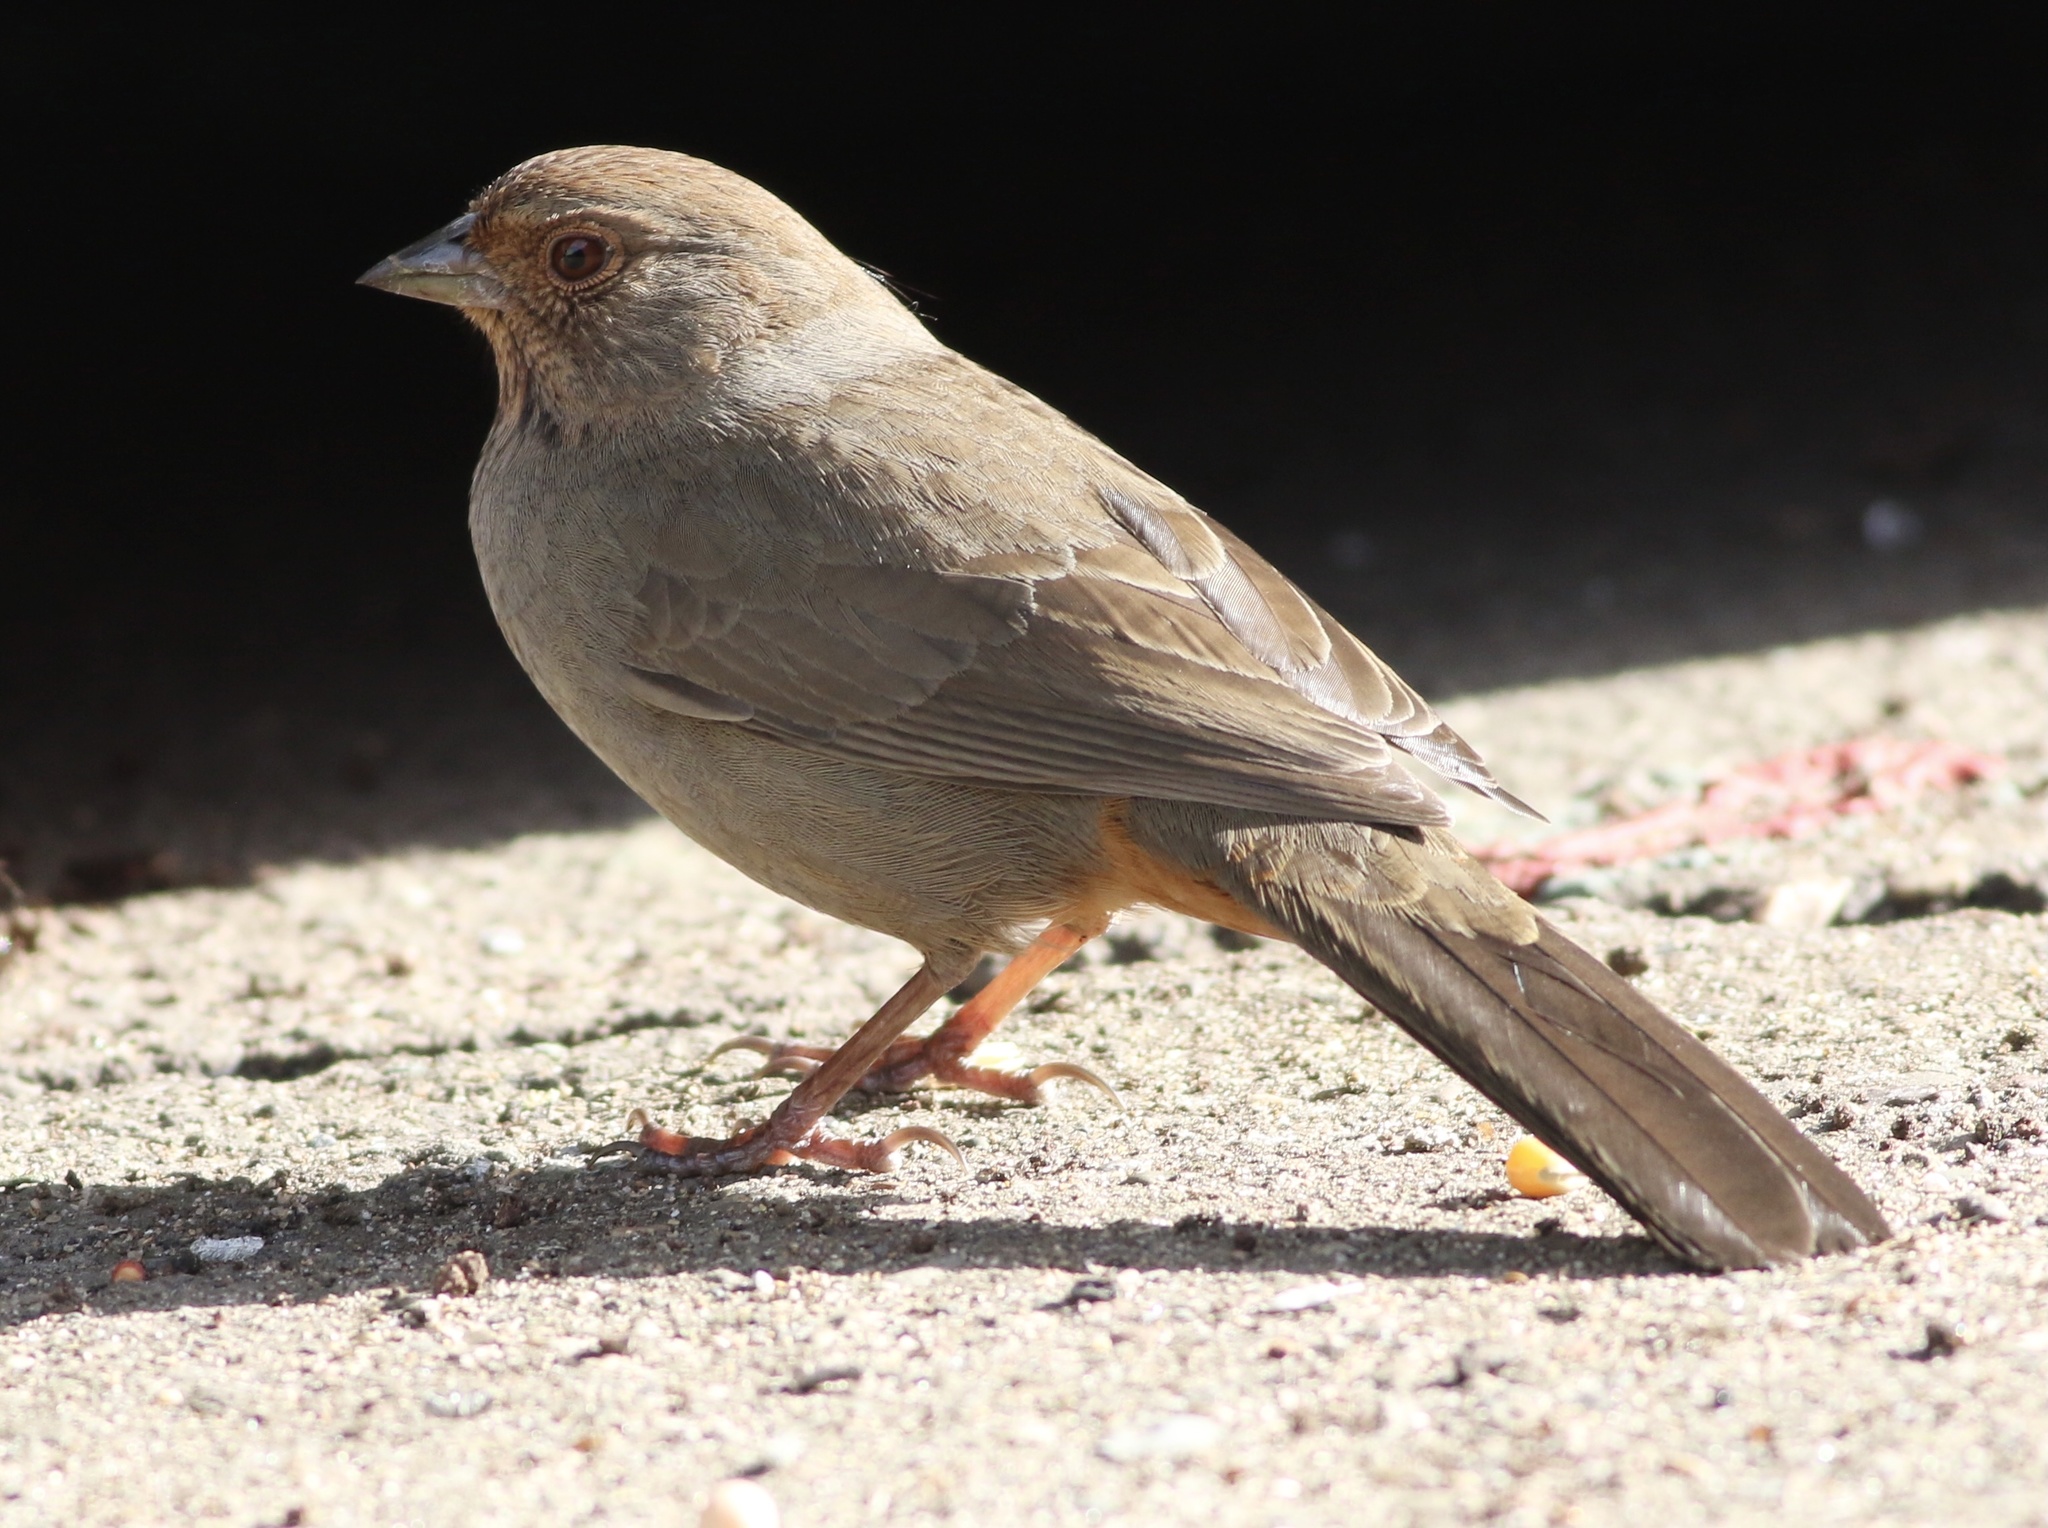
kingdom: Animalia
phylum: Chordata
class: Aves
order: Passeriformes
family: Passerellidae
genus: Melozone
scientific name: Melozone crissalis
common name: California towhee
